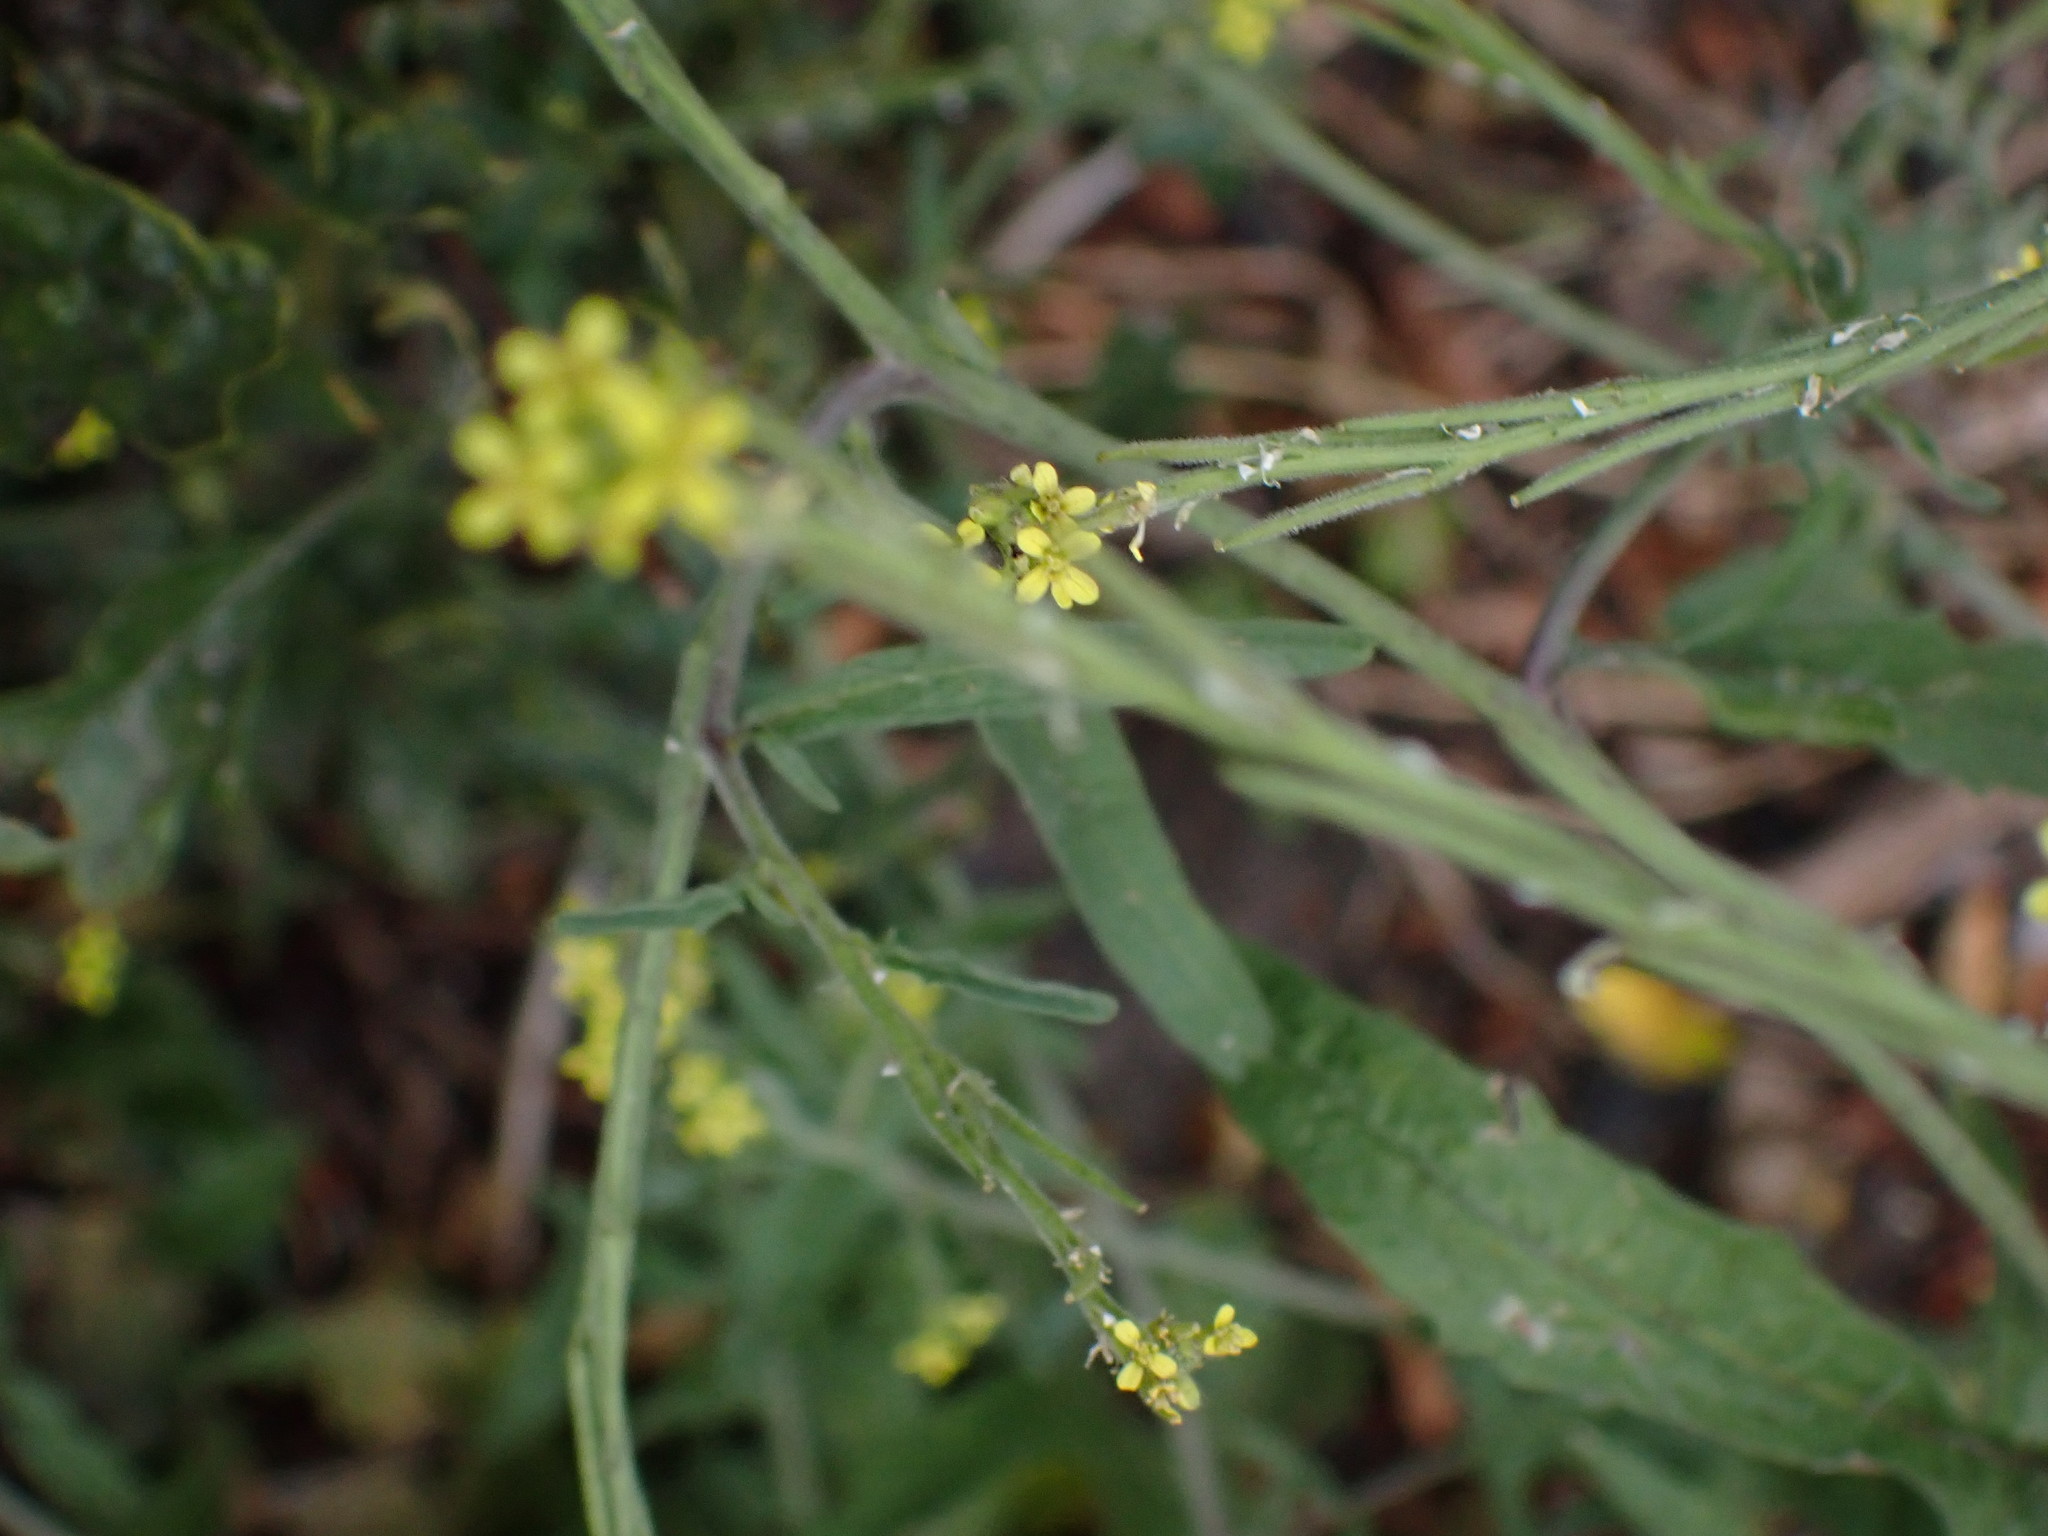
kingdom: Plantae
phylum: Tracheophyta
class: Magnoliopsida
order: Brassicales
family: Brassicaceae
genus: Sisymbrium
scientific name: Sisymbrium officinale
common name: Hedge mustard
